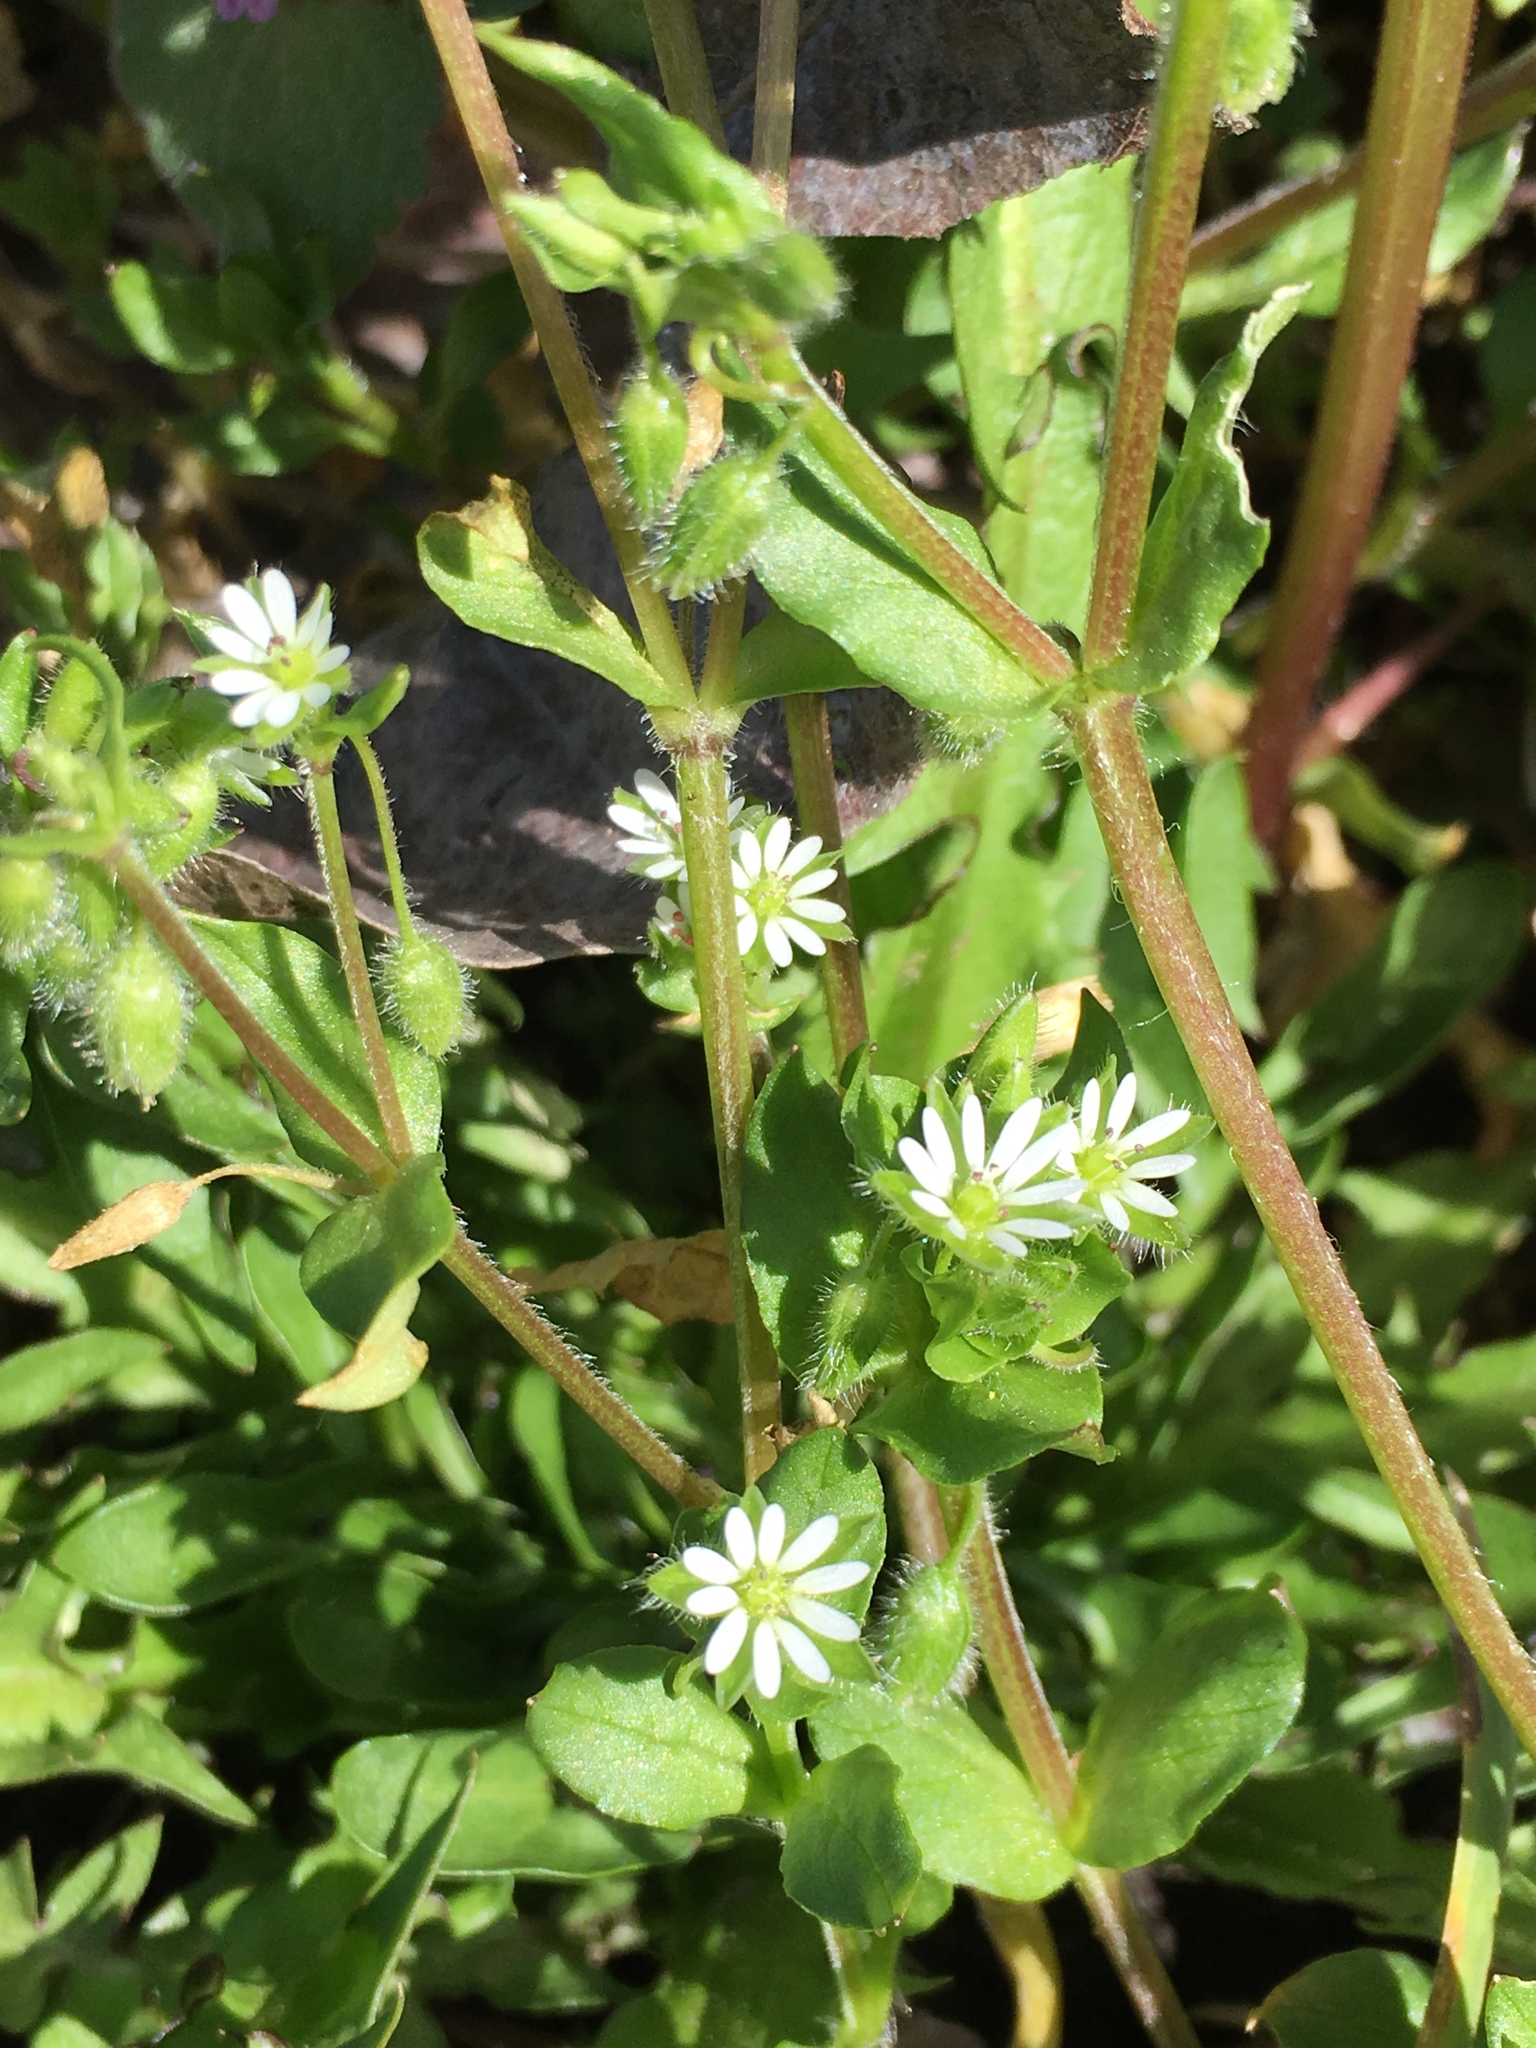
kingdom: Plantae
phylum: Tracheophyta
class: Magnoliopsida
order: Caryophyllales
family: Caryophyllaceae
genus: Stellaria
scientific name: Stellaria media
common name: Common chickweed
